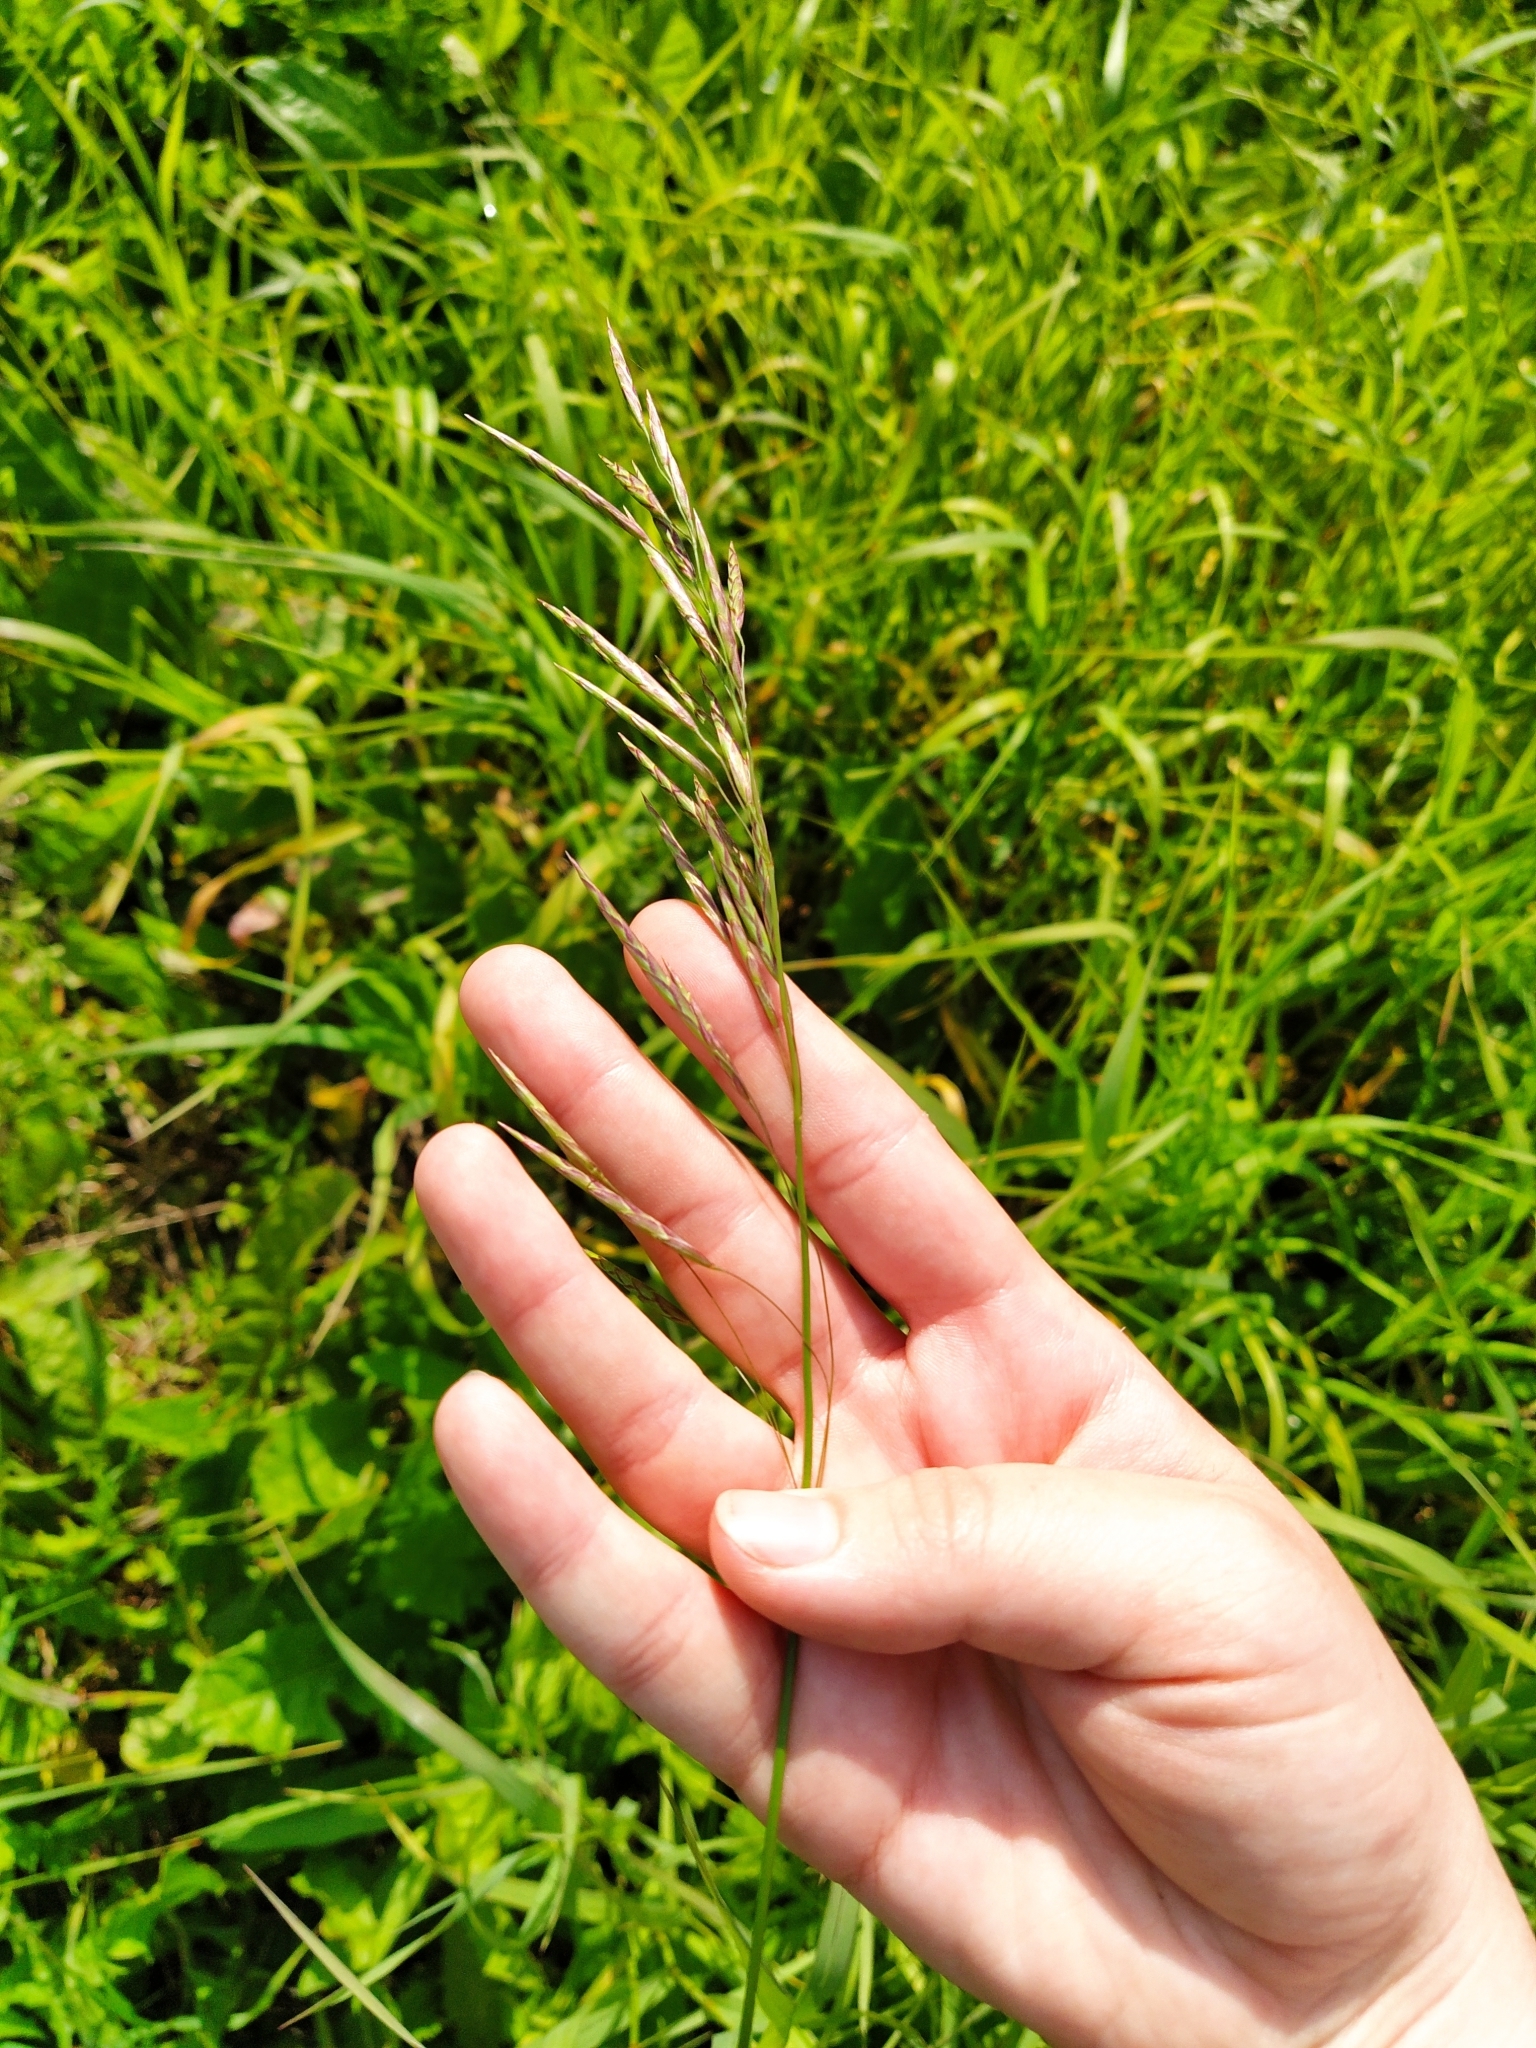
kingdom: Plantae
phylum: Tracheophyta
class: Liliopsida
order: Poales
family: Poaceae
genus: Bromus
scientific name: Bromus inermis
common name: Smooth brome
